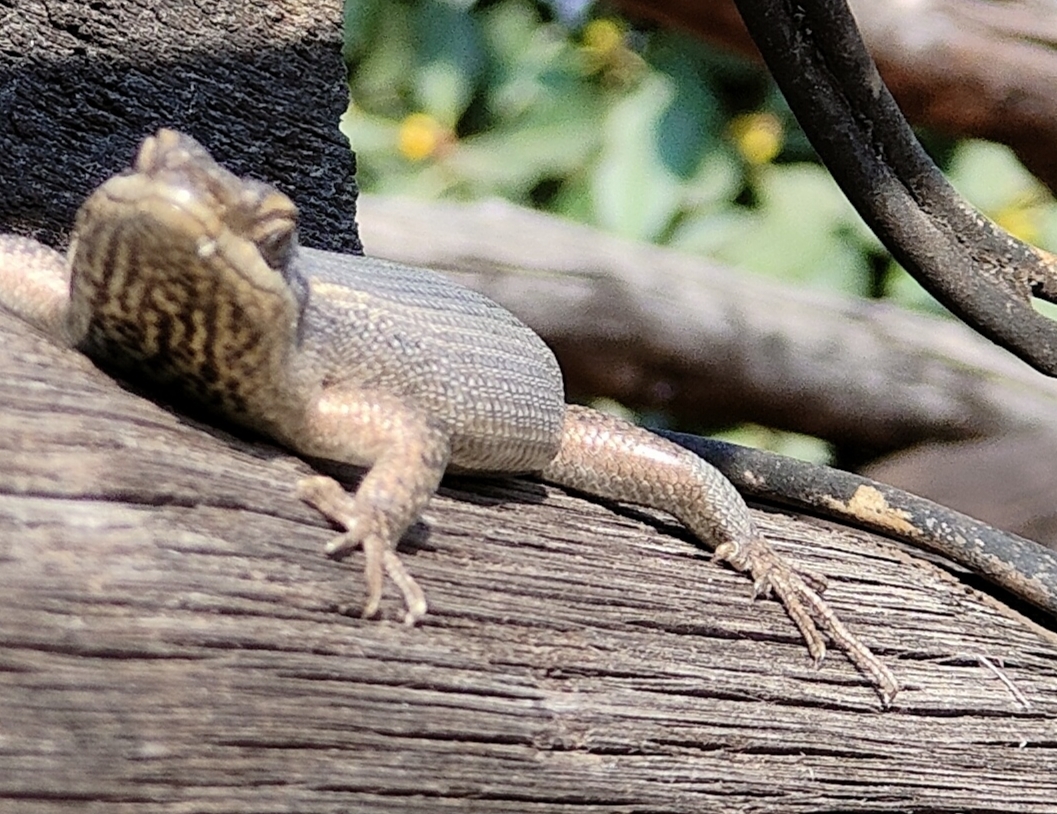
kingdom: Animalia
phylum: Chordata
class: Squamata
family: Scincidae
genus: Trachylepis
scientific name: Trachylepis punctatissima
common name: Montane speckled skink
